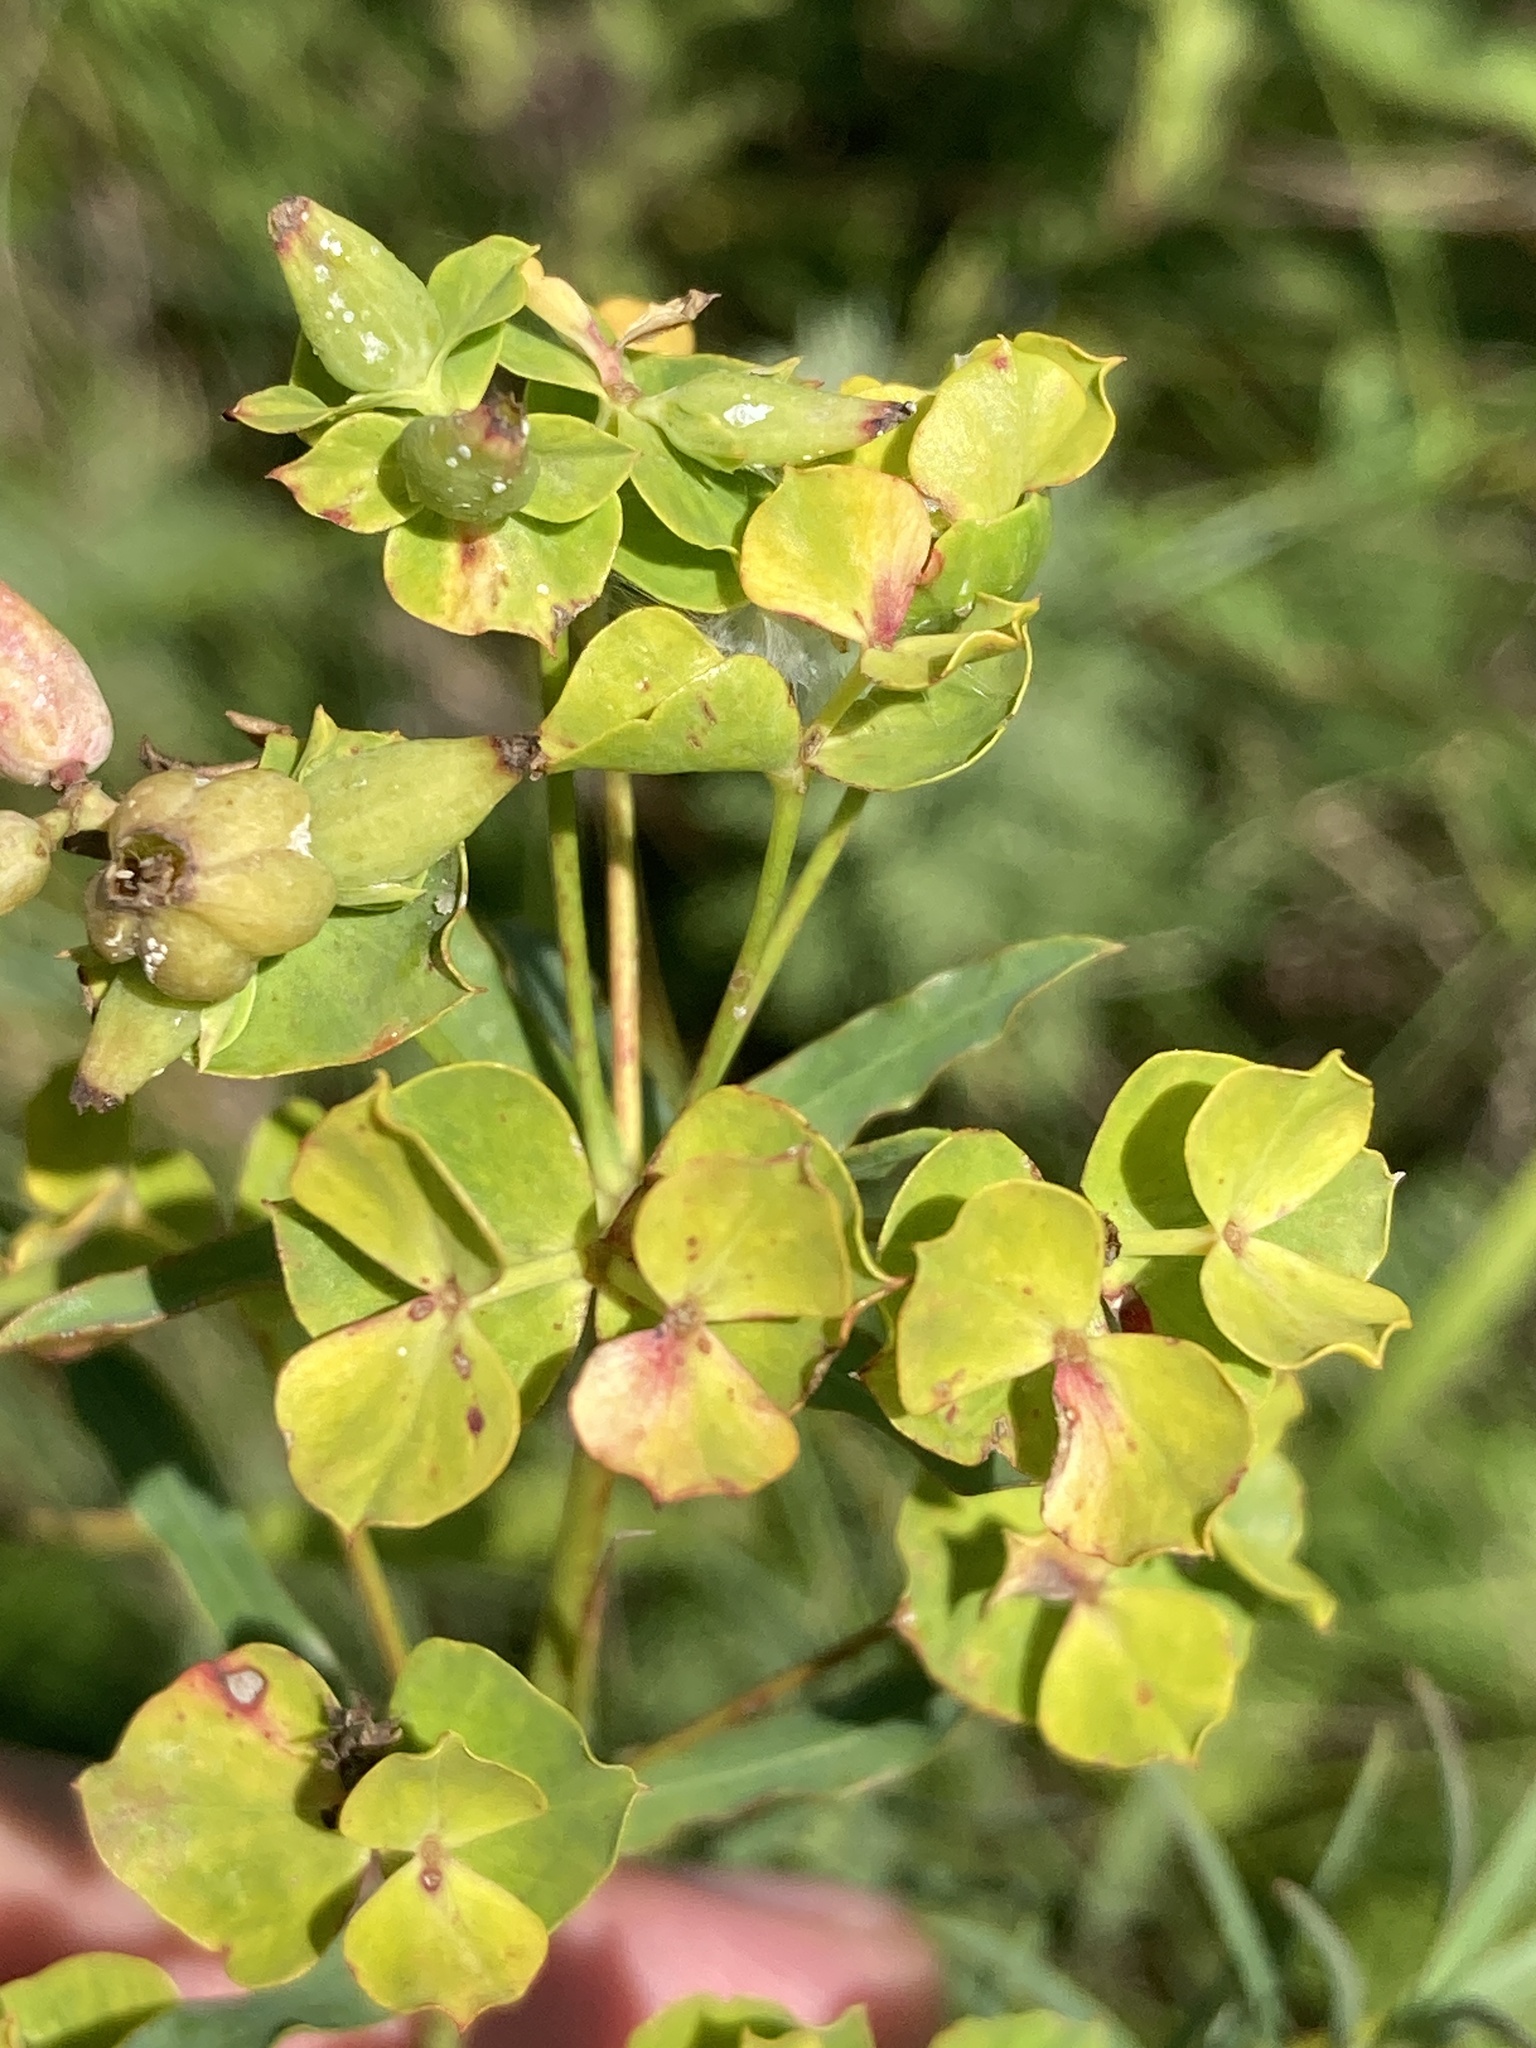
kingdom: Plantae
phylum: Tracheophyta
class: Magnoliopsida
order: Malpighiales
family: Euphorbiaceae
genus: Euphorbia
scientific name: Euphorbia virgata
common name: Leafy spurge
